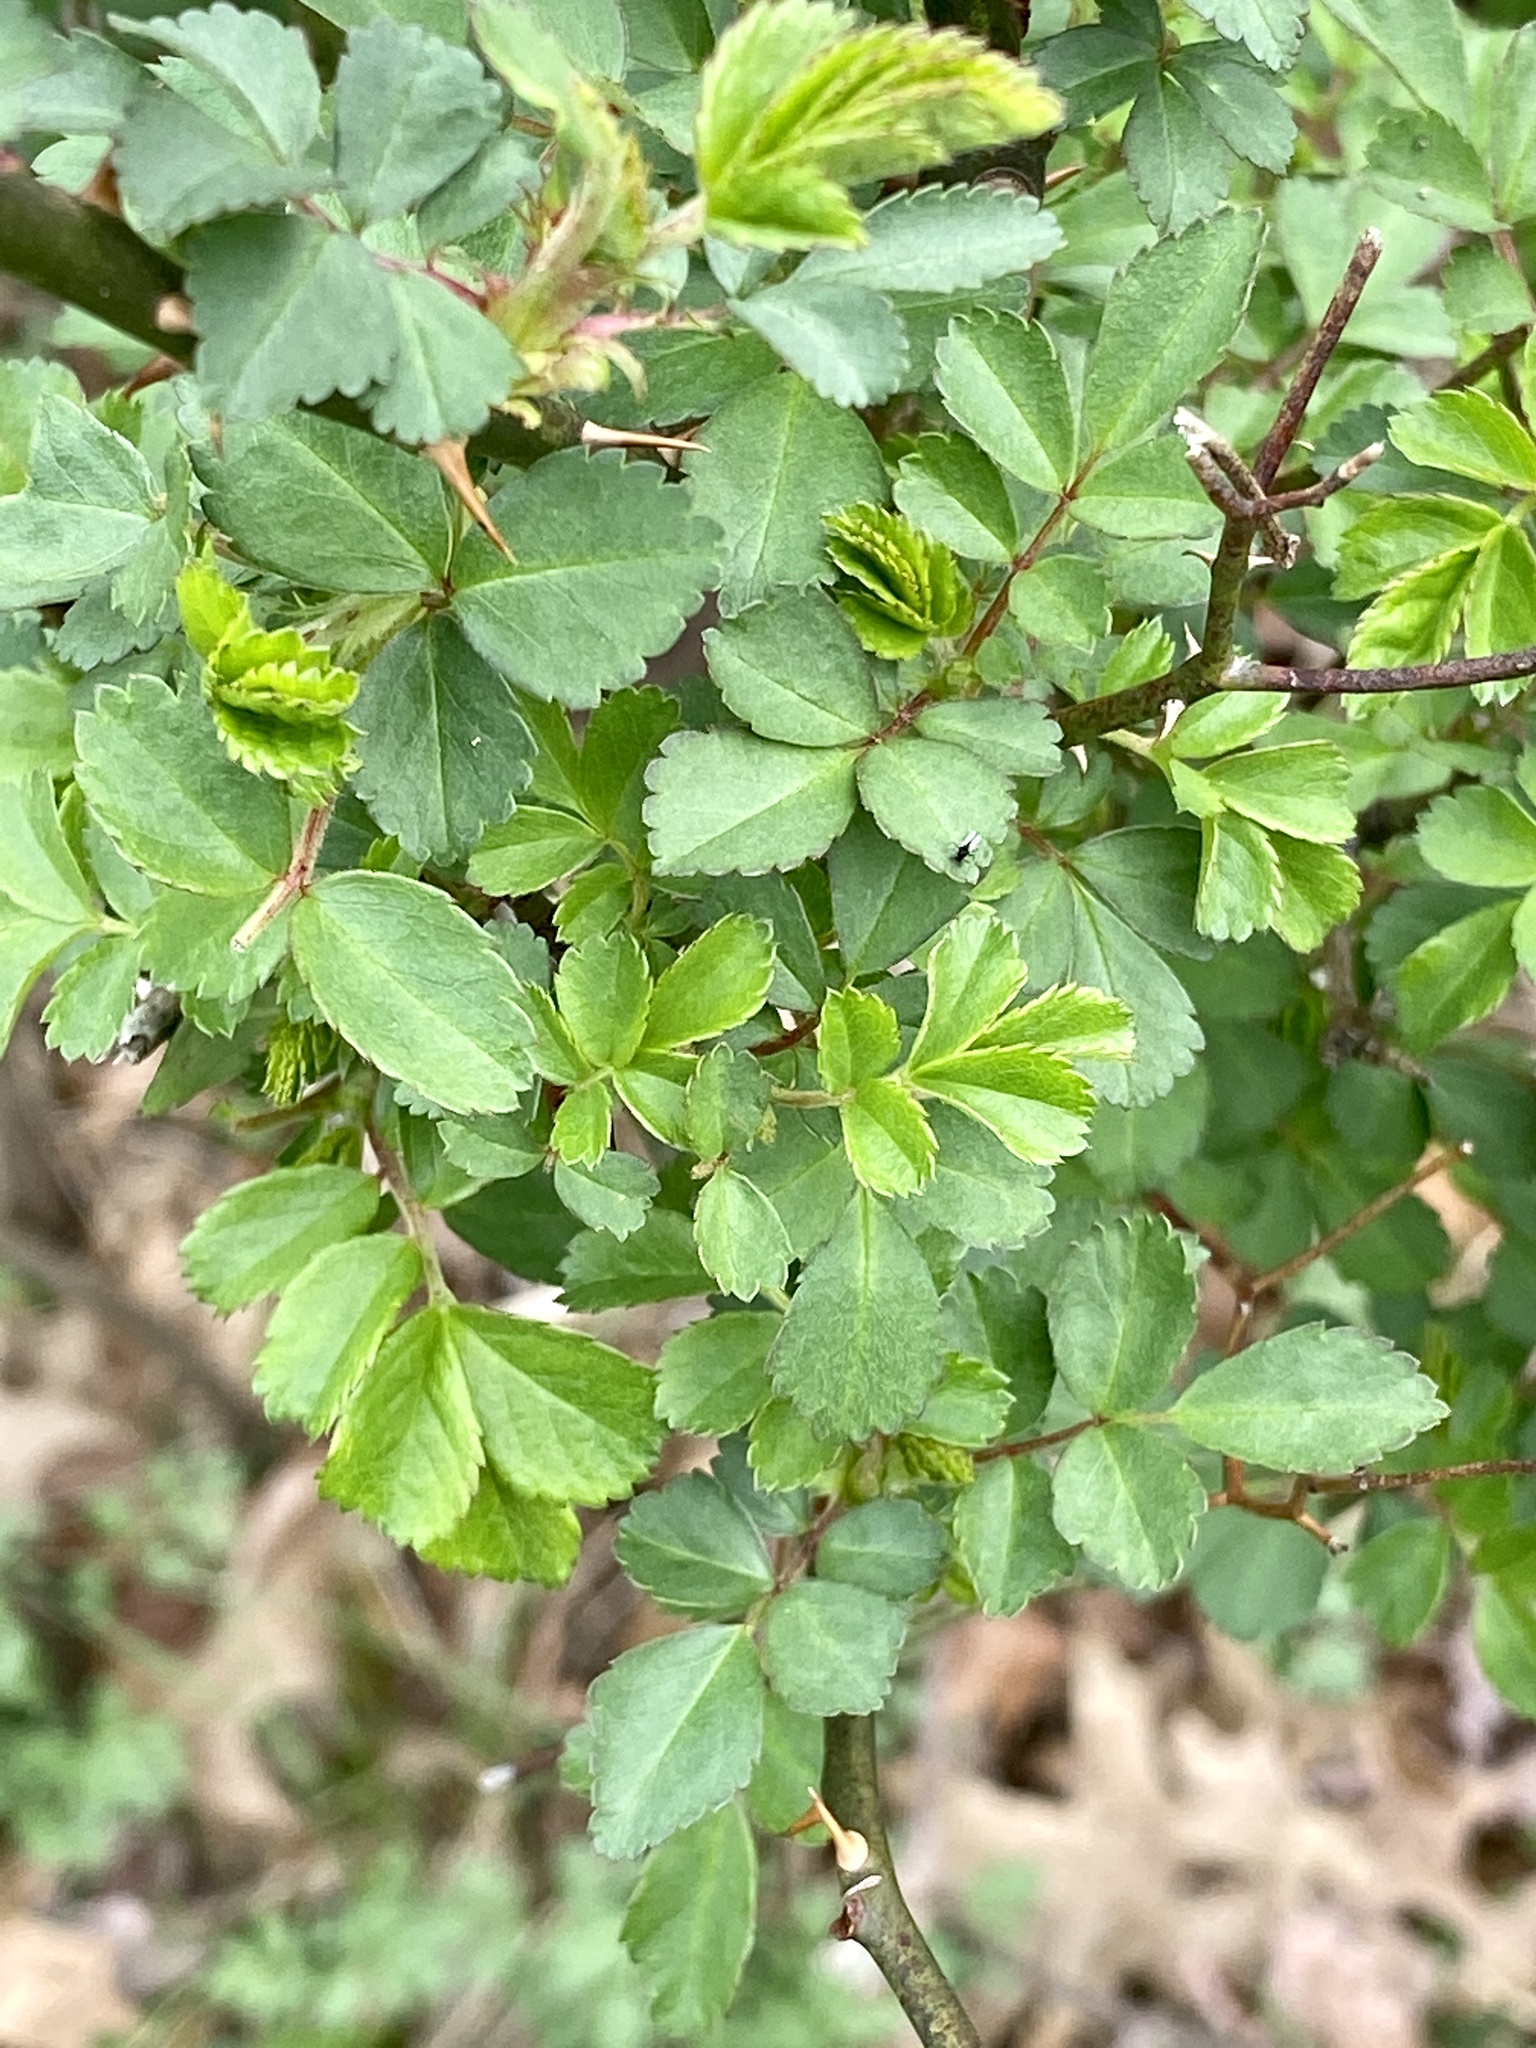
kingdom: Plantae
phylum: Tracheophyta
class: Magnoliopsida
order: Rosales
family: Rosaceae
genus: Rosa
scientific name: Rosa multiflora
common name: Multiflora rose
